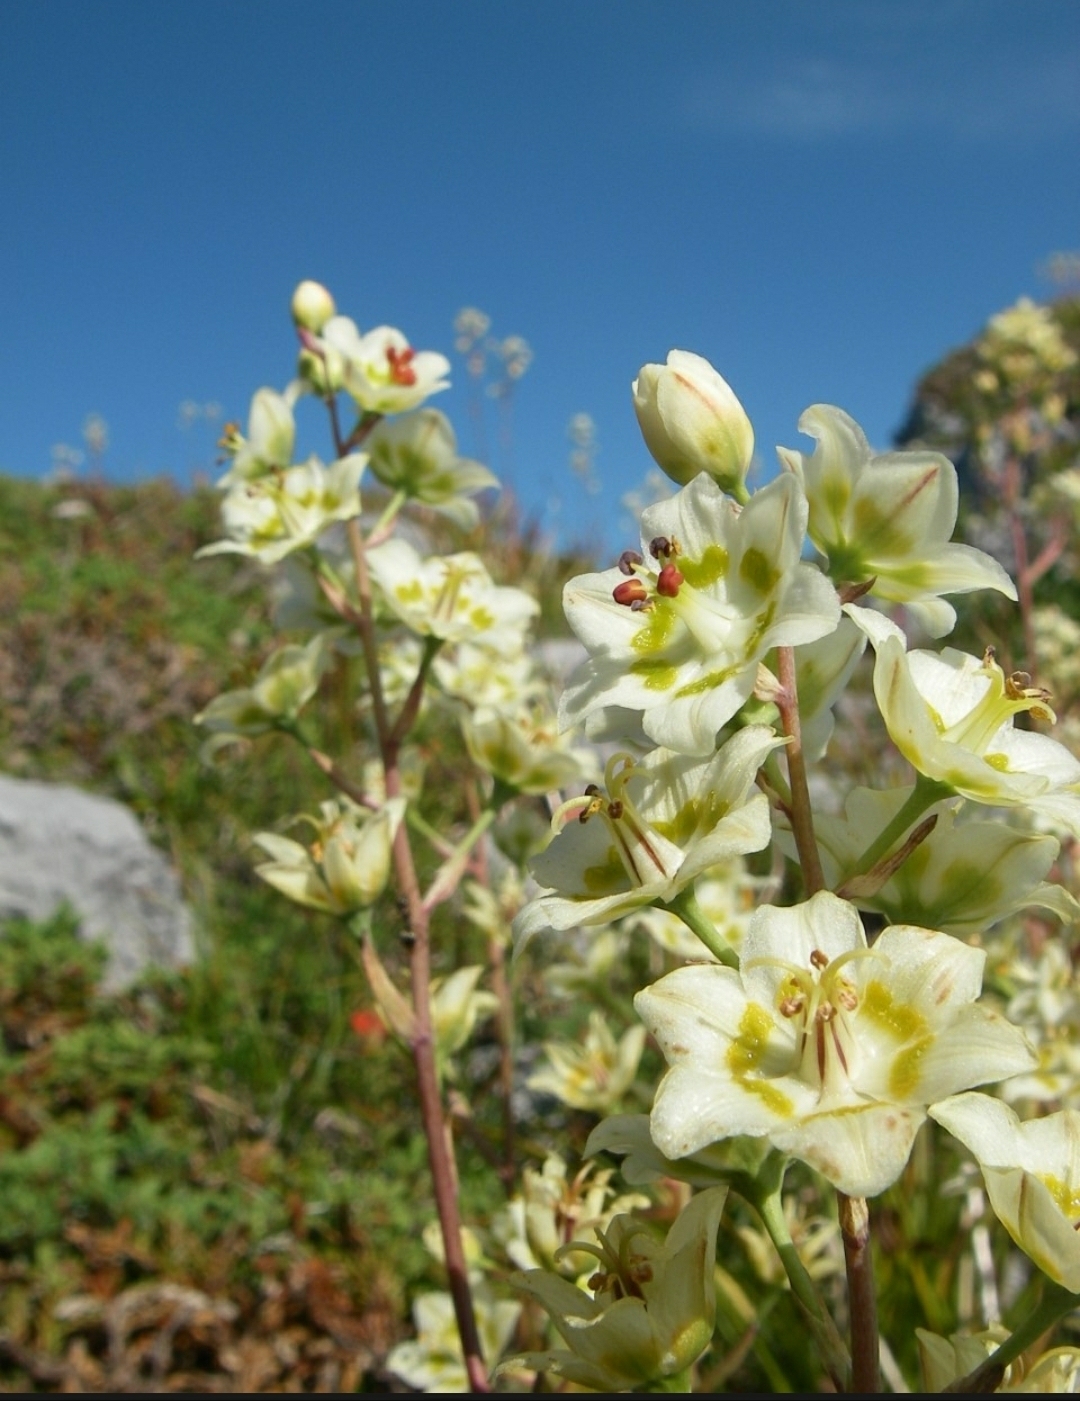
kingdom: Plantae
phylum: Tracheophyta
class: Liliopsida
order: Liliales
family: Melanthiaceae
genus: Anticlea
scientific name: Anticlea elegans
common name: Mountain death camas
